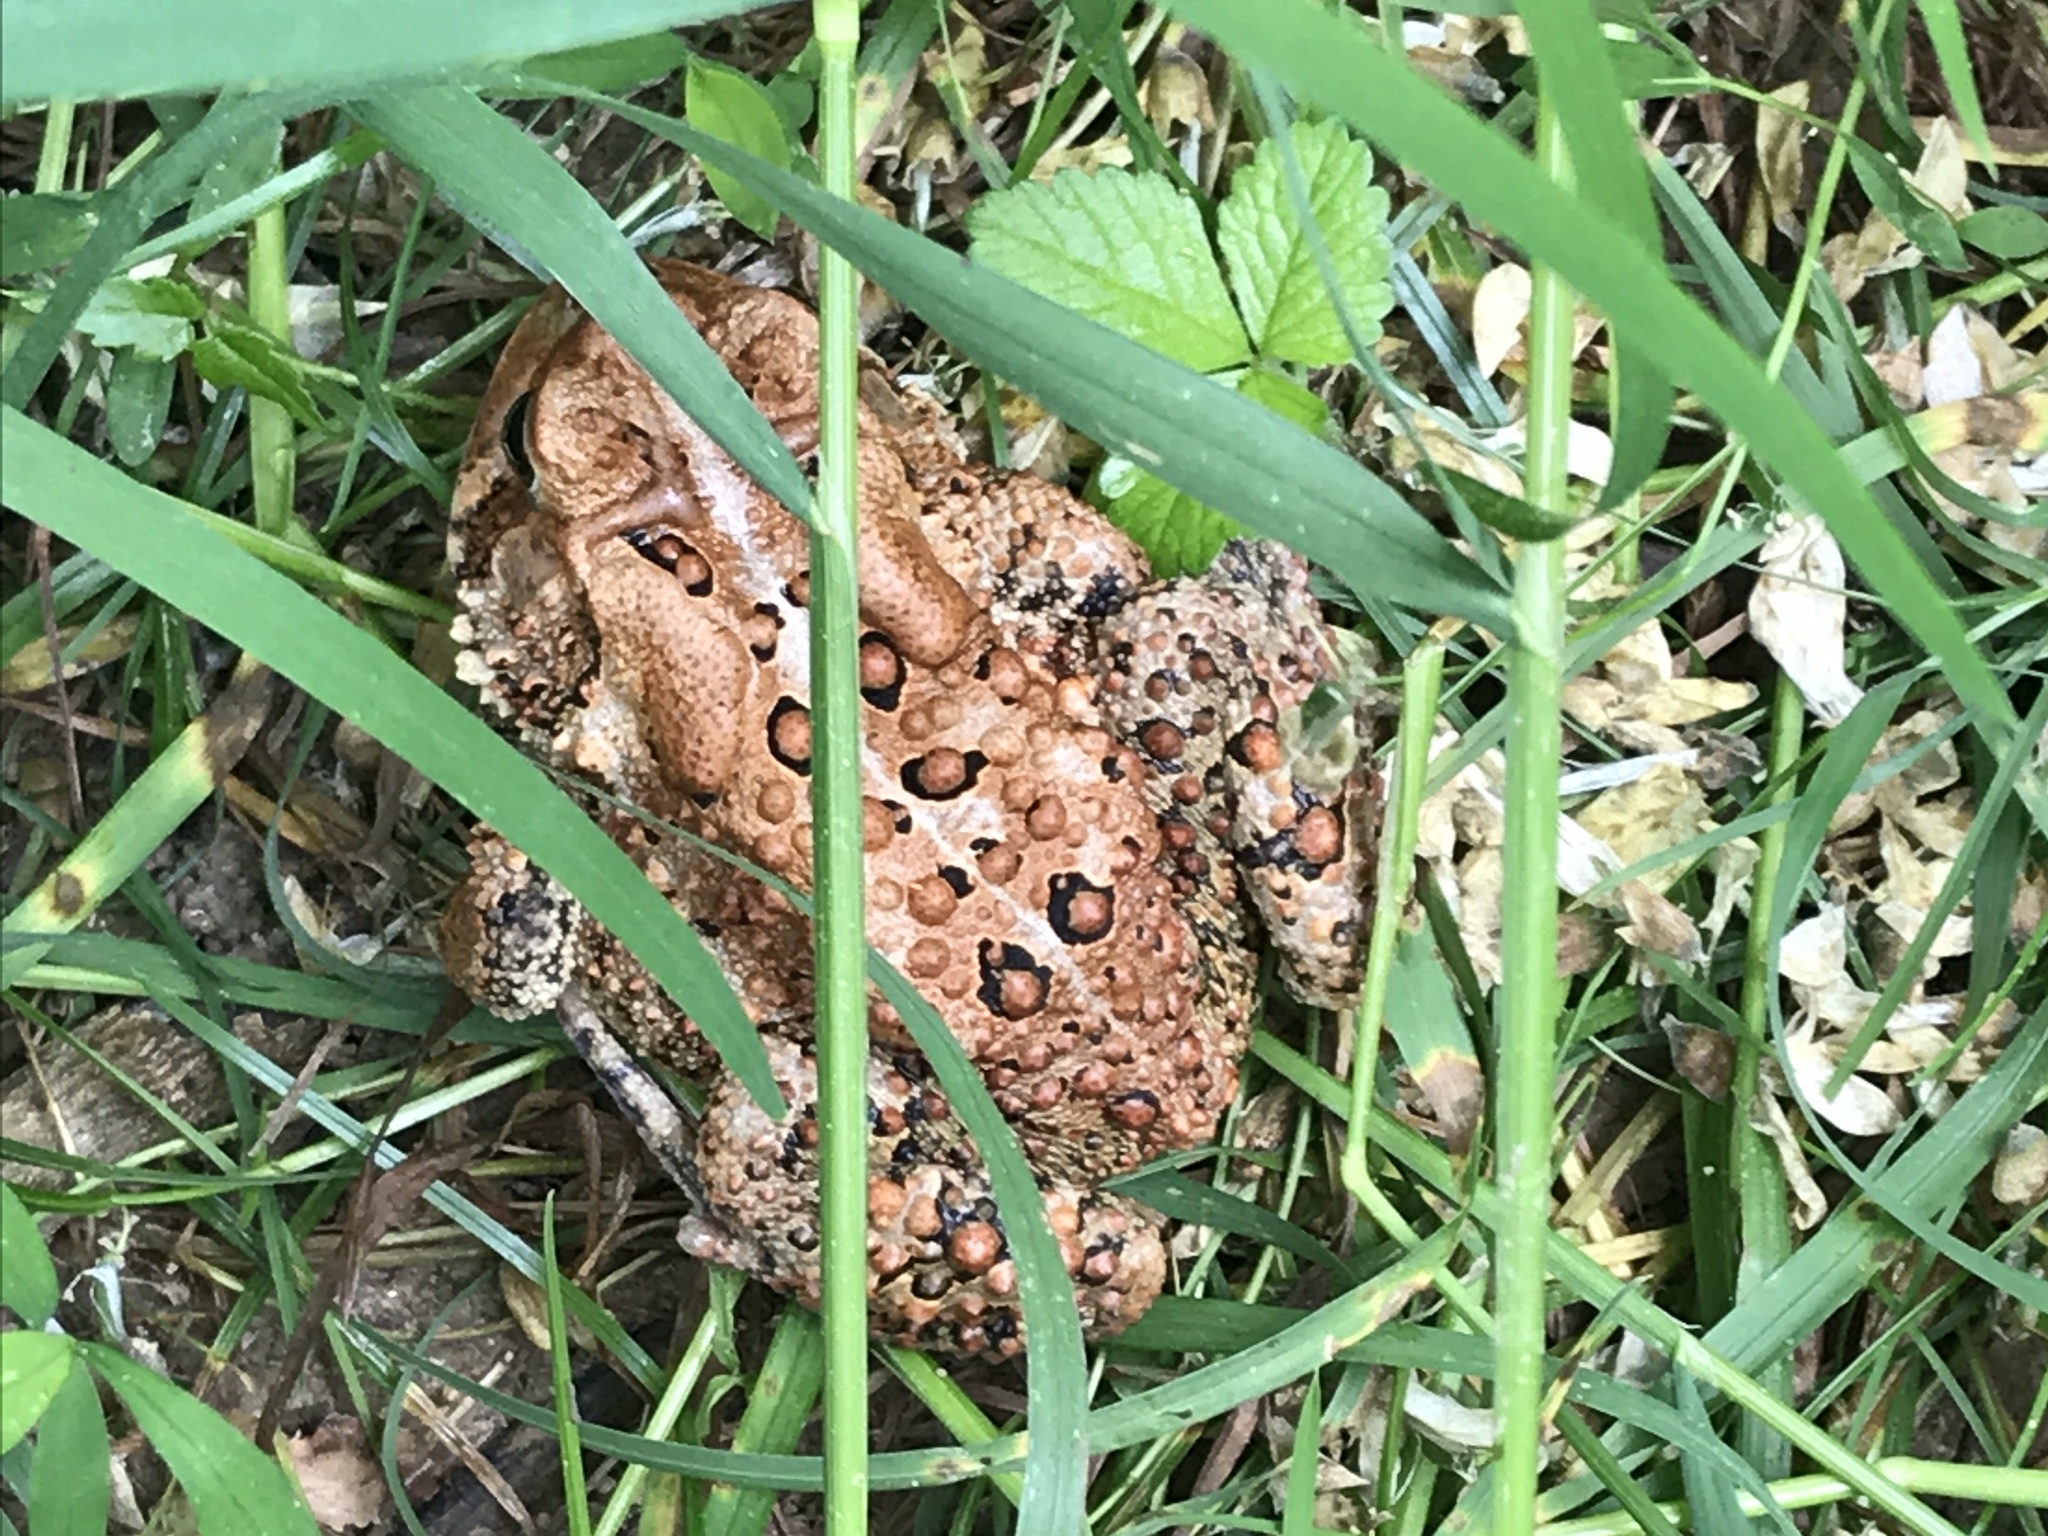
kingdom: Animalia
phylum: Chordata
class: Amphibia
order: Anura
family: Bufonidae
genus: Anaxyrus
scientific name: Anaxyrus americanus
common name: American toad
